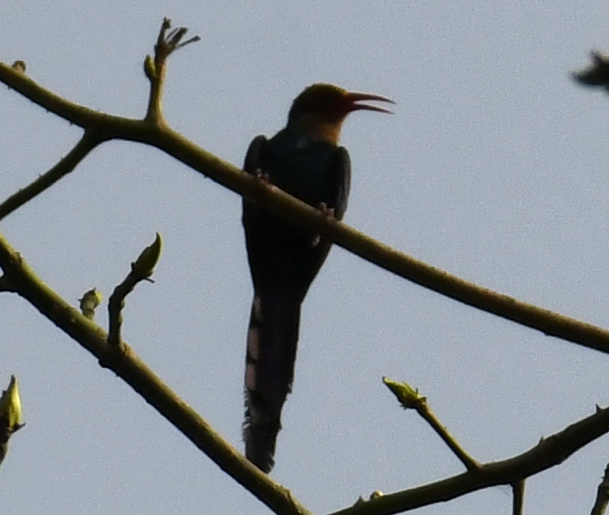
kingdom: Animalia
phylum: Chordata
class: Aves
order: Bucerotiformes
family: Phoeniculidae
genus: Phoeniculus
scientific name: Phoeniculus bollei
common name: White-headed woodhoopoe
